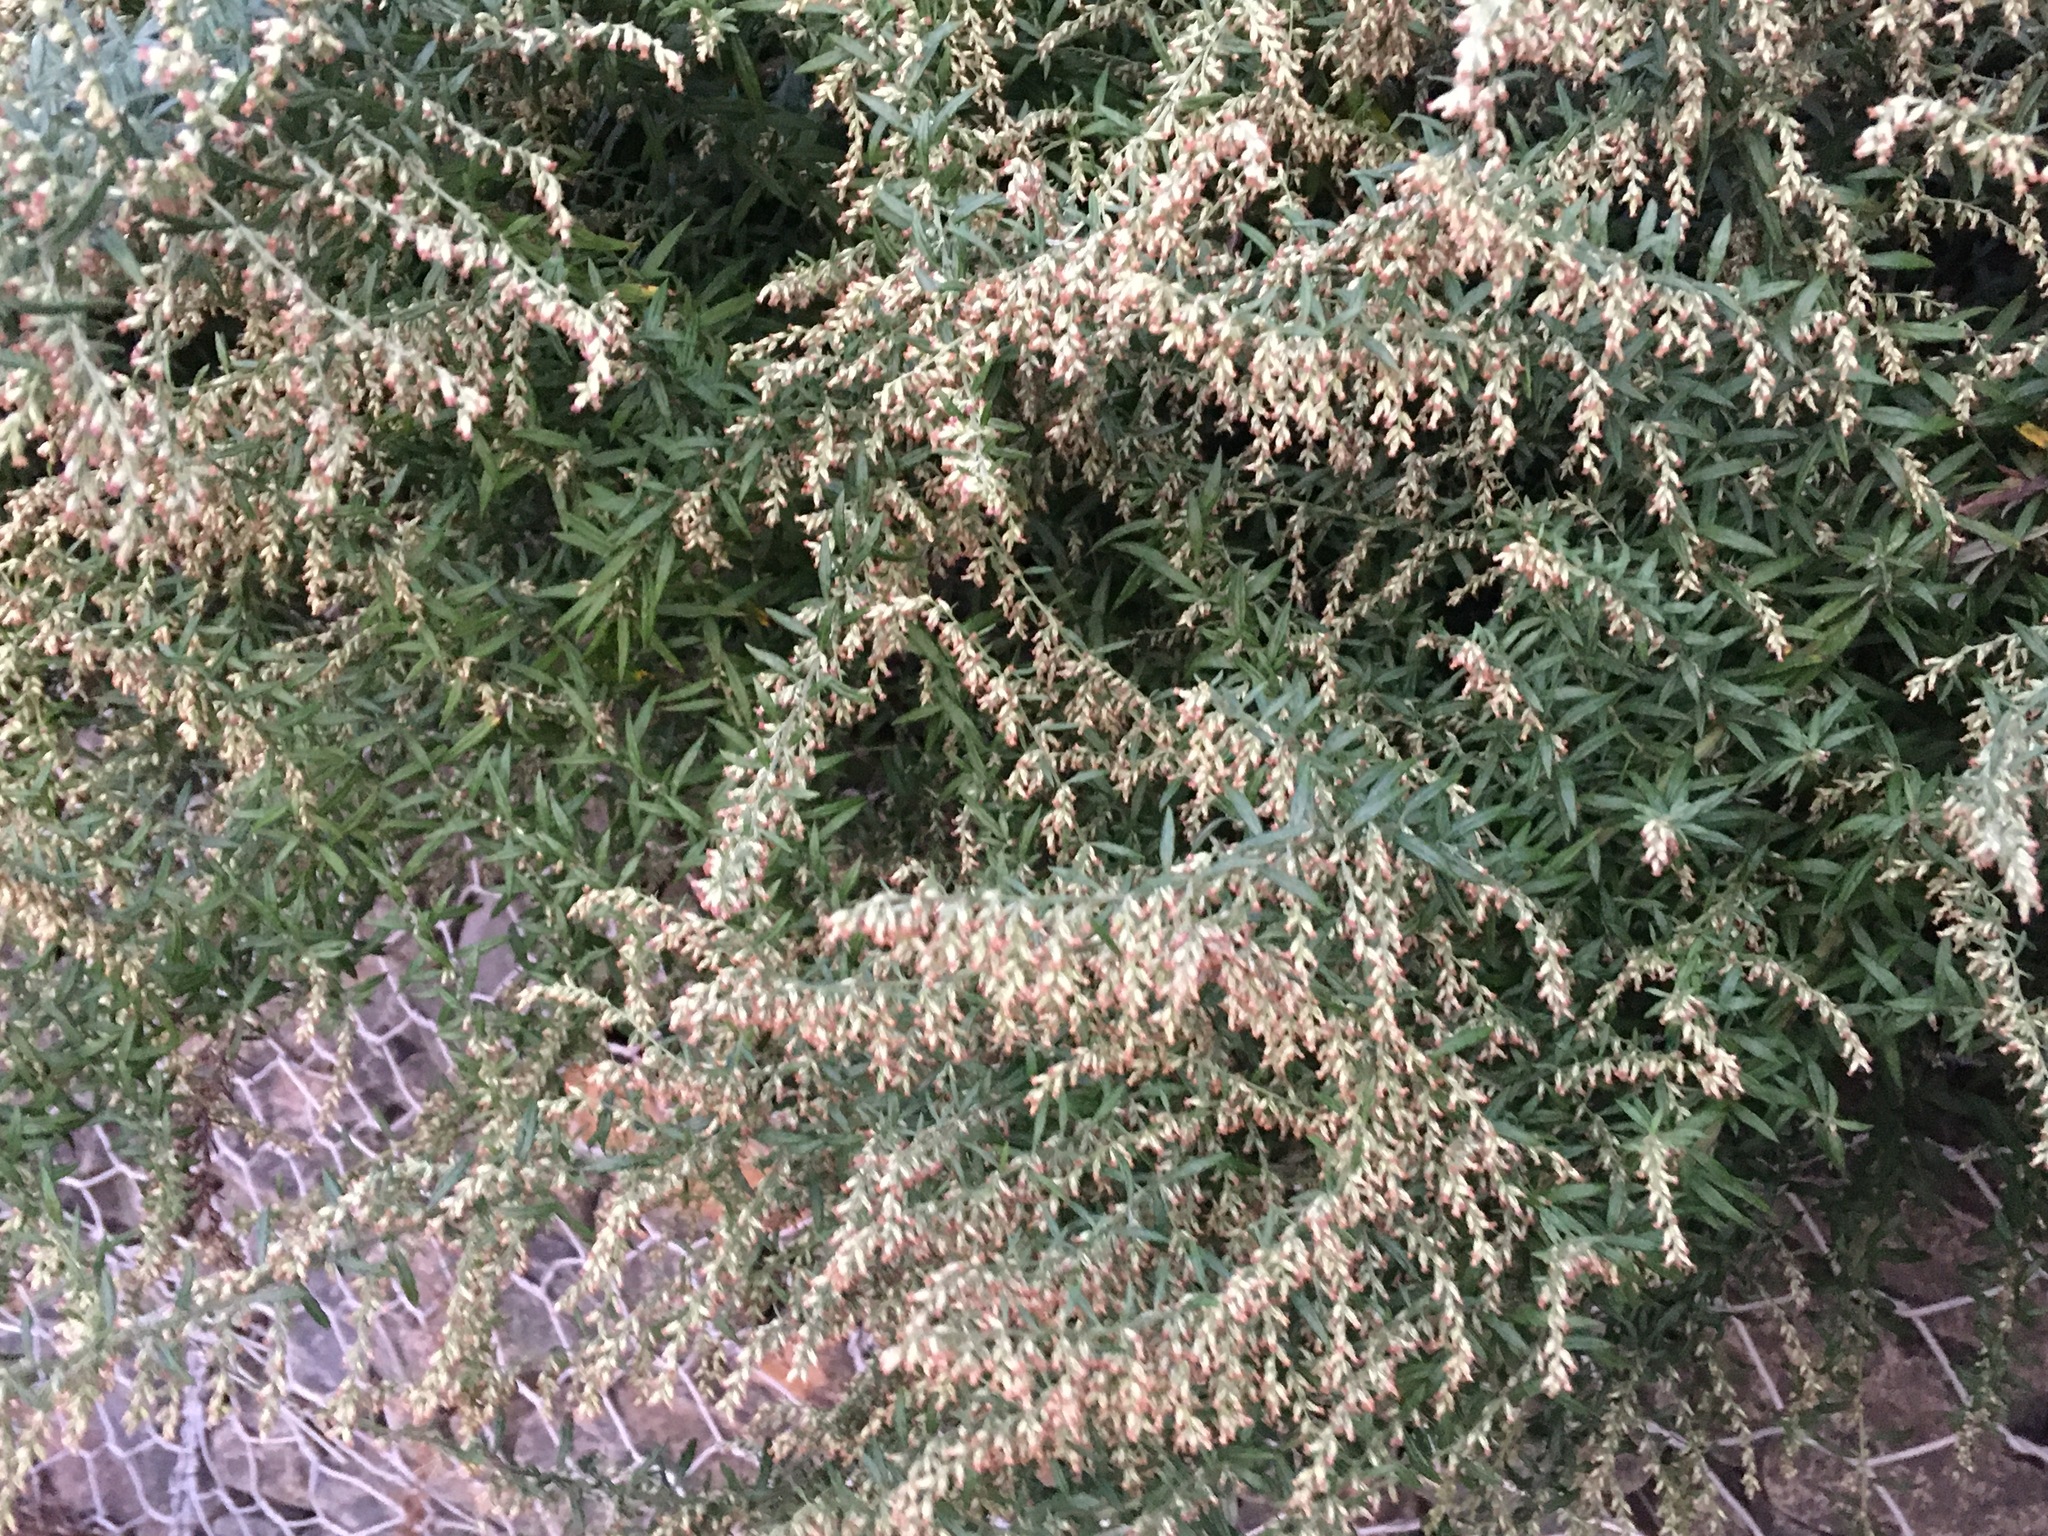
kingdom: Plantae
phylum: Tracheophyta
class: Magnoliopsida
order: Asterales
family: Asteraceae
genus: Artemisia
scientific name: Artemisia vulgaris
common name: Mugwort
